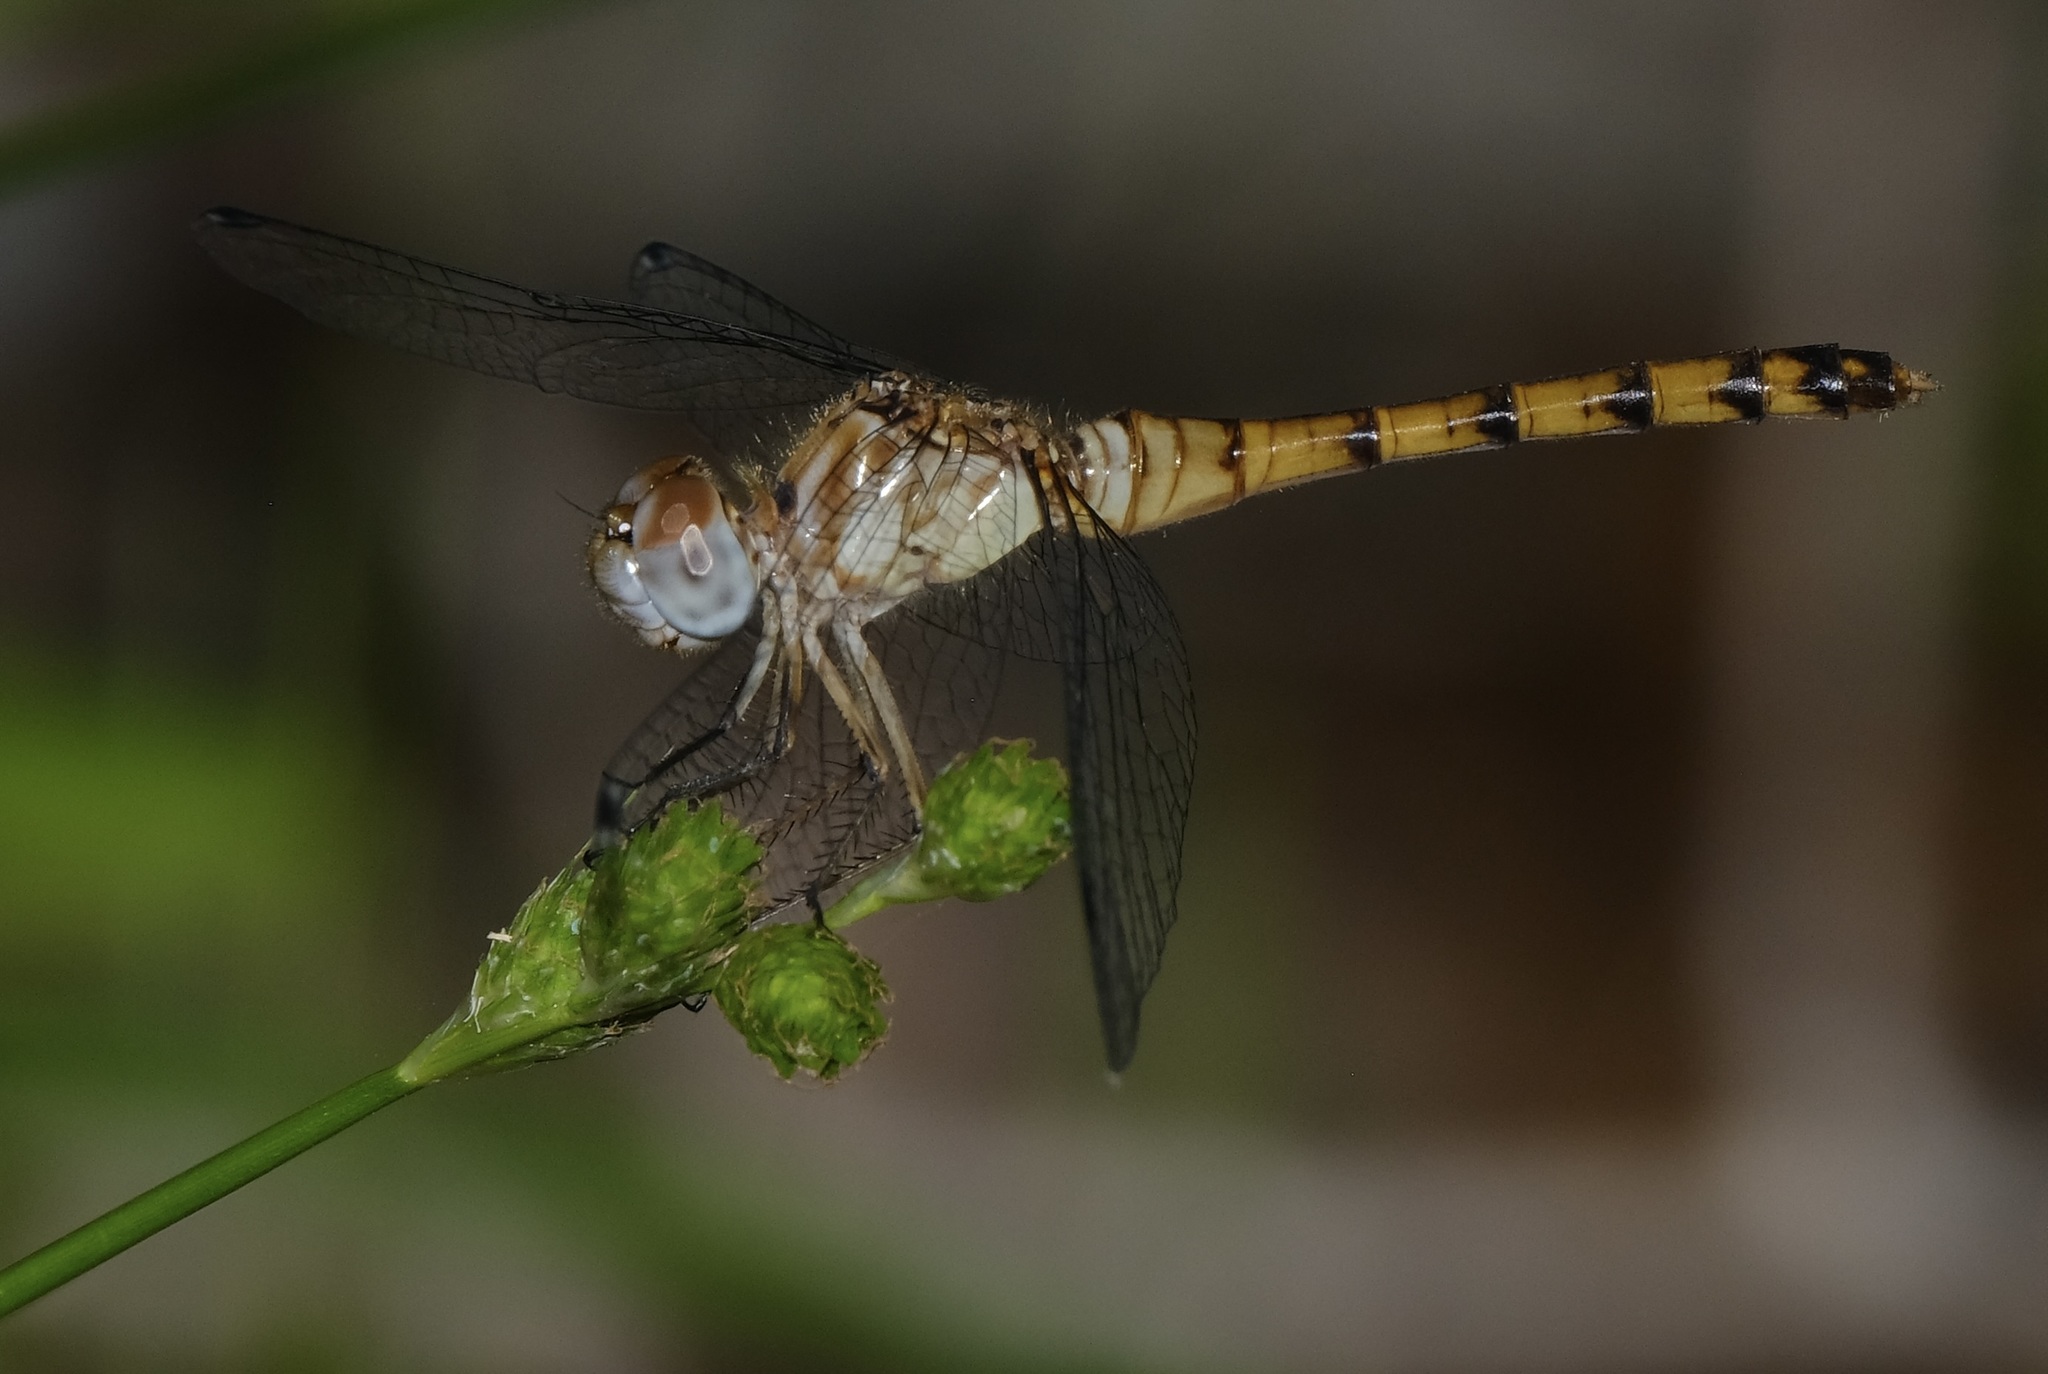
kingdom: Animalia
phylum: Arthropoda
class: Insecta
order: Odonata
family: Libellulidae
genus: Sympetrum
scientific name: Sympetrum ambiguum
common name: Blue-faced meadowhawk
